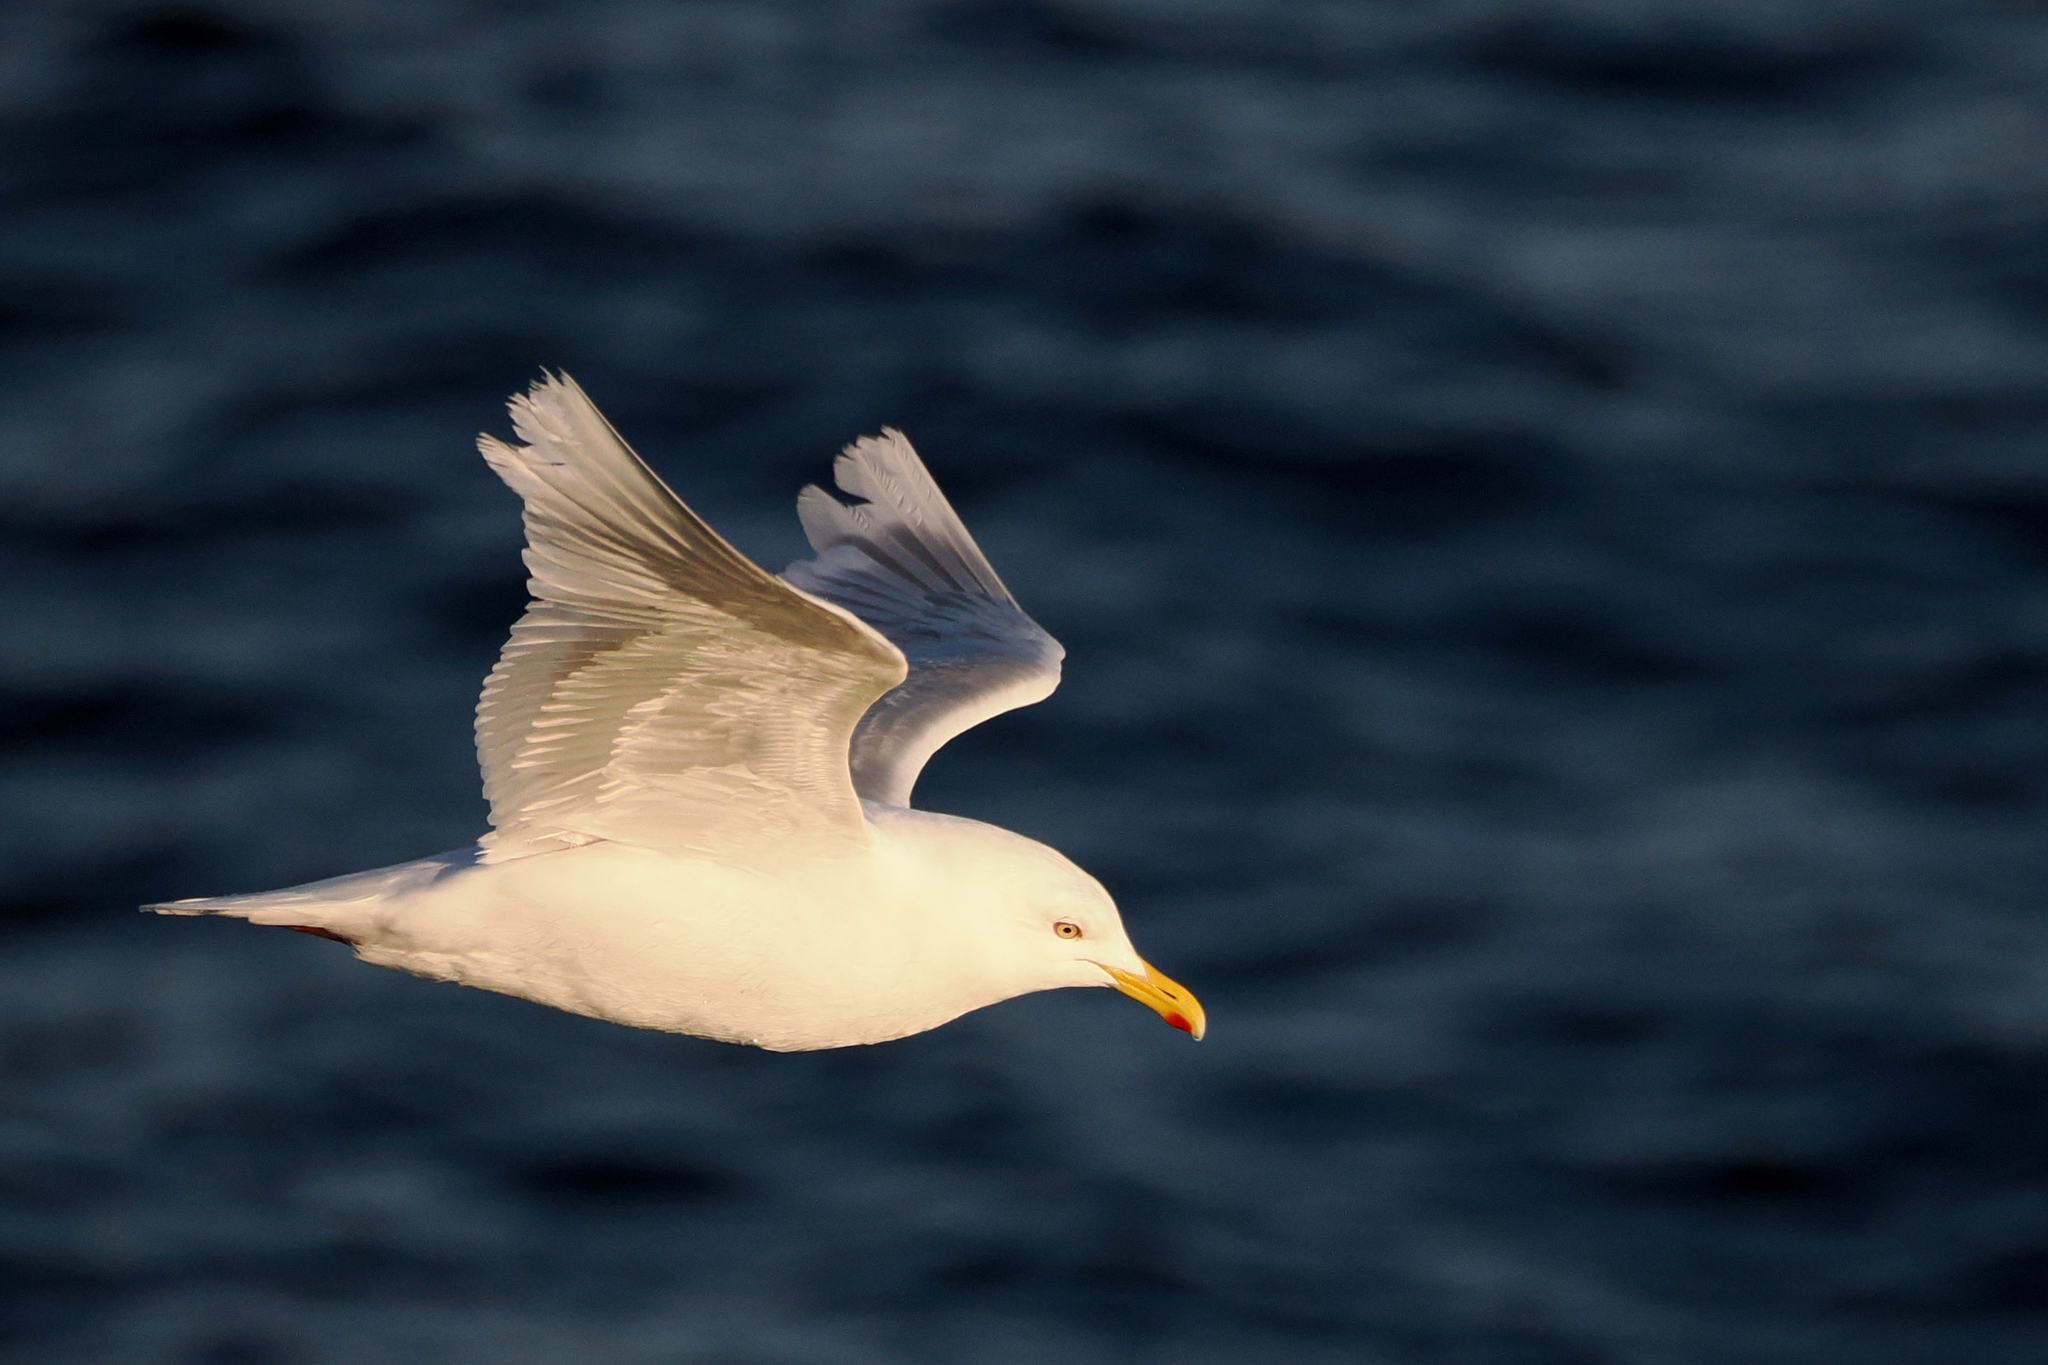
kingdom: Animalia
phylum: Chordata
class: Aves
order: Charadriiformes
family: Laridae
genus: Larus
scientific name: Larus glaucoides
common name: Iceland gull
